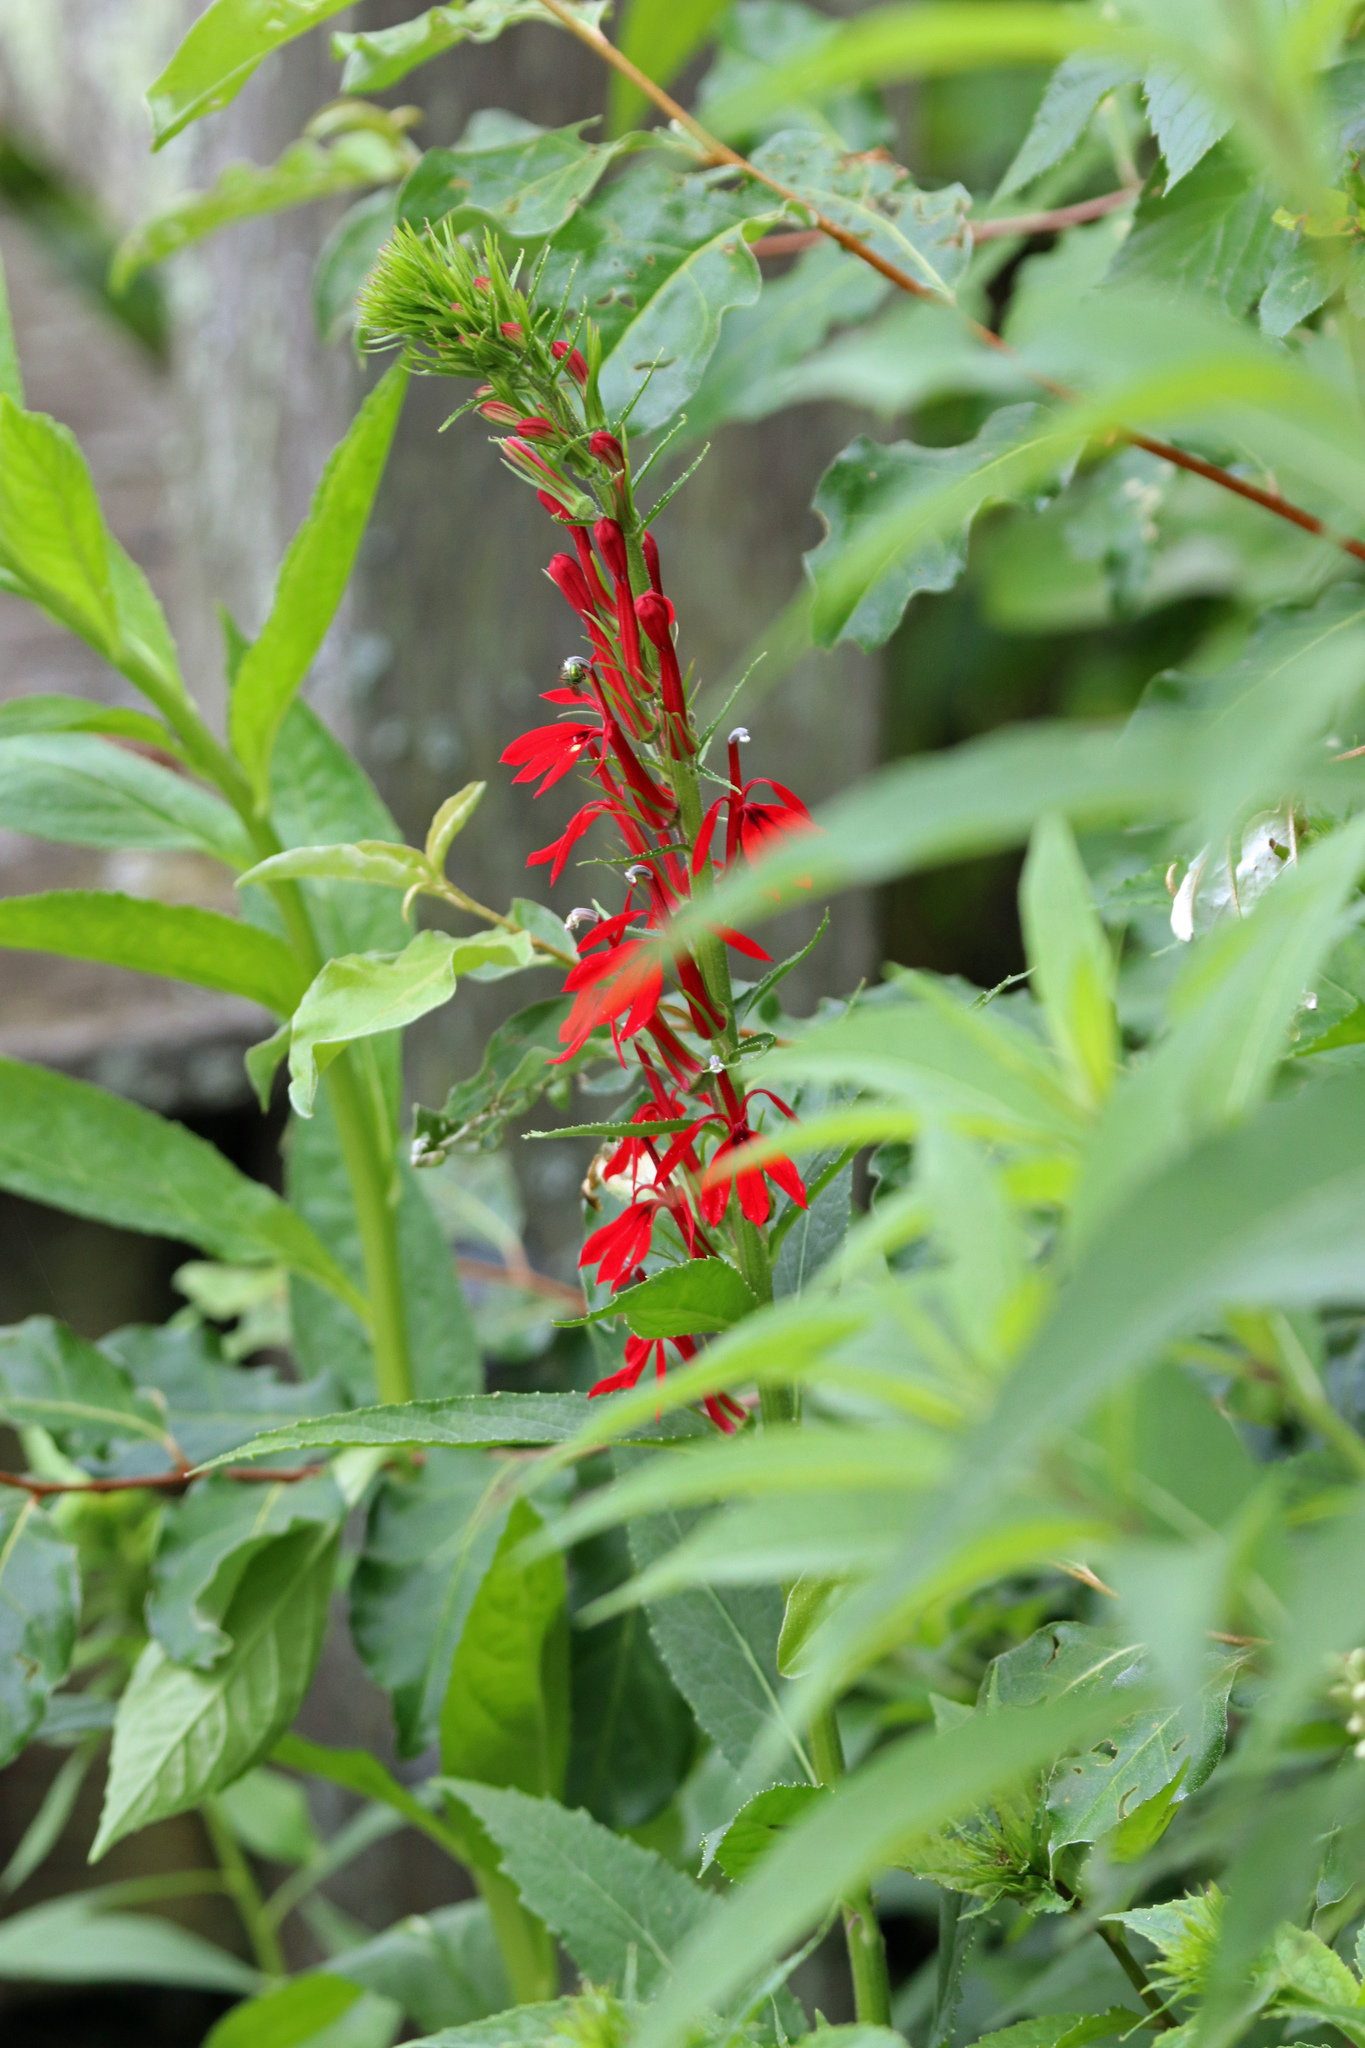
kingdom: Plantae
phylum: Tracheophyta
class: Magnoliopsida
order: Asterales
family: Campanulaceae
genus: Lobelia
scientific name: Lobelia cardinalis
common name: Cardinal flower
